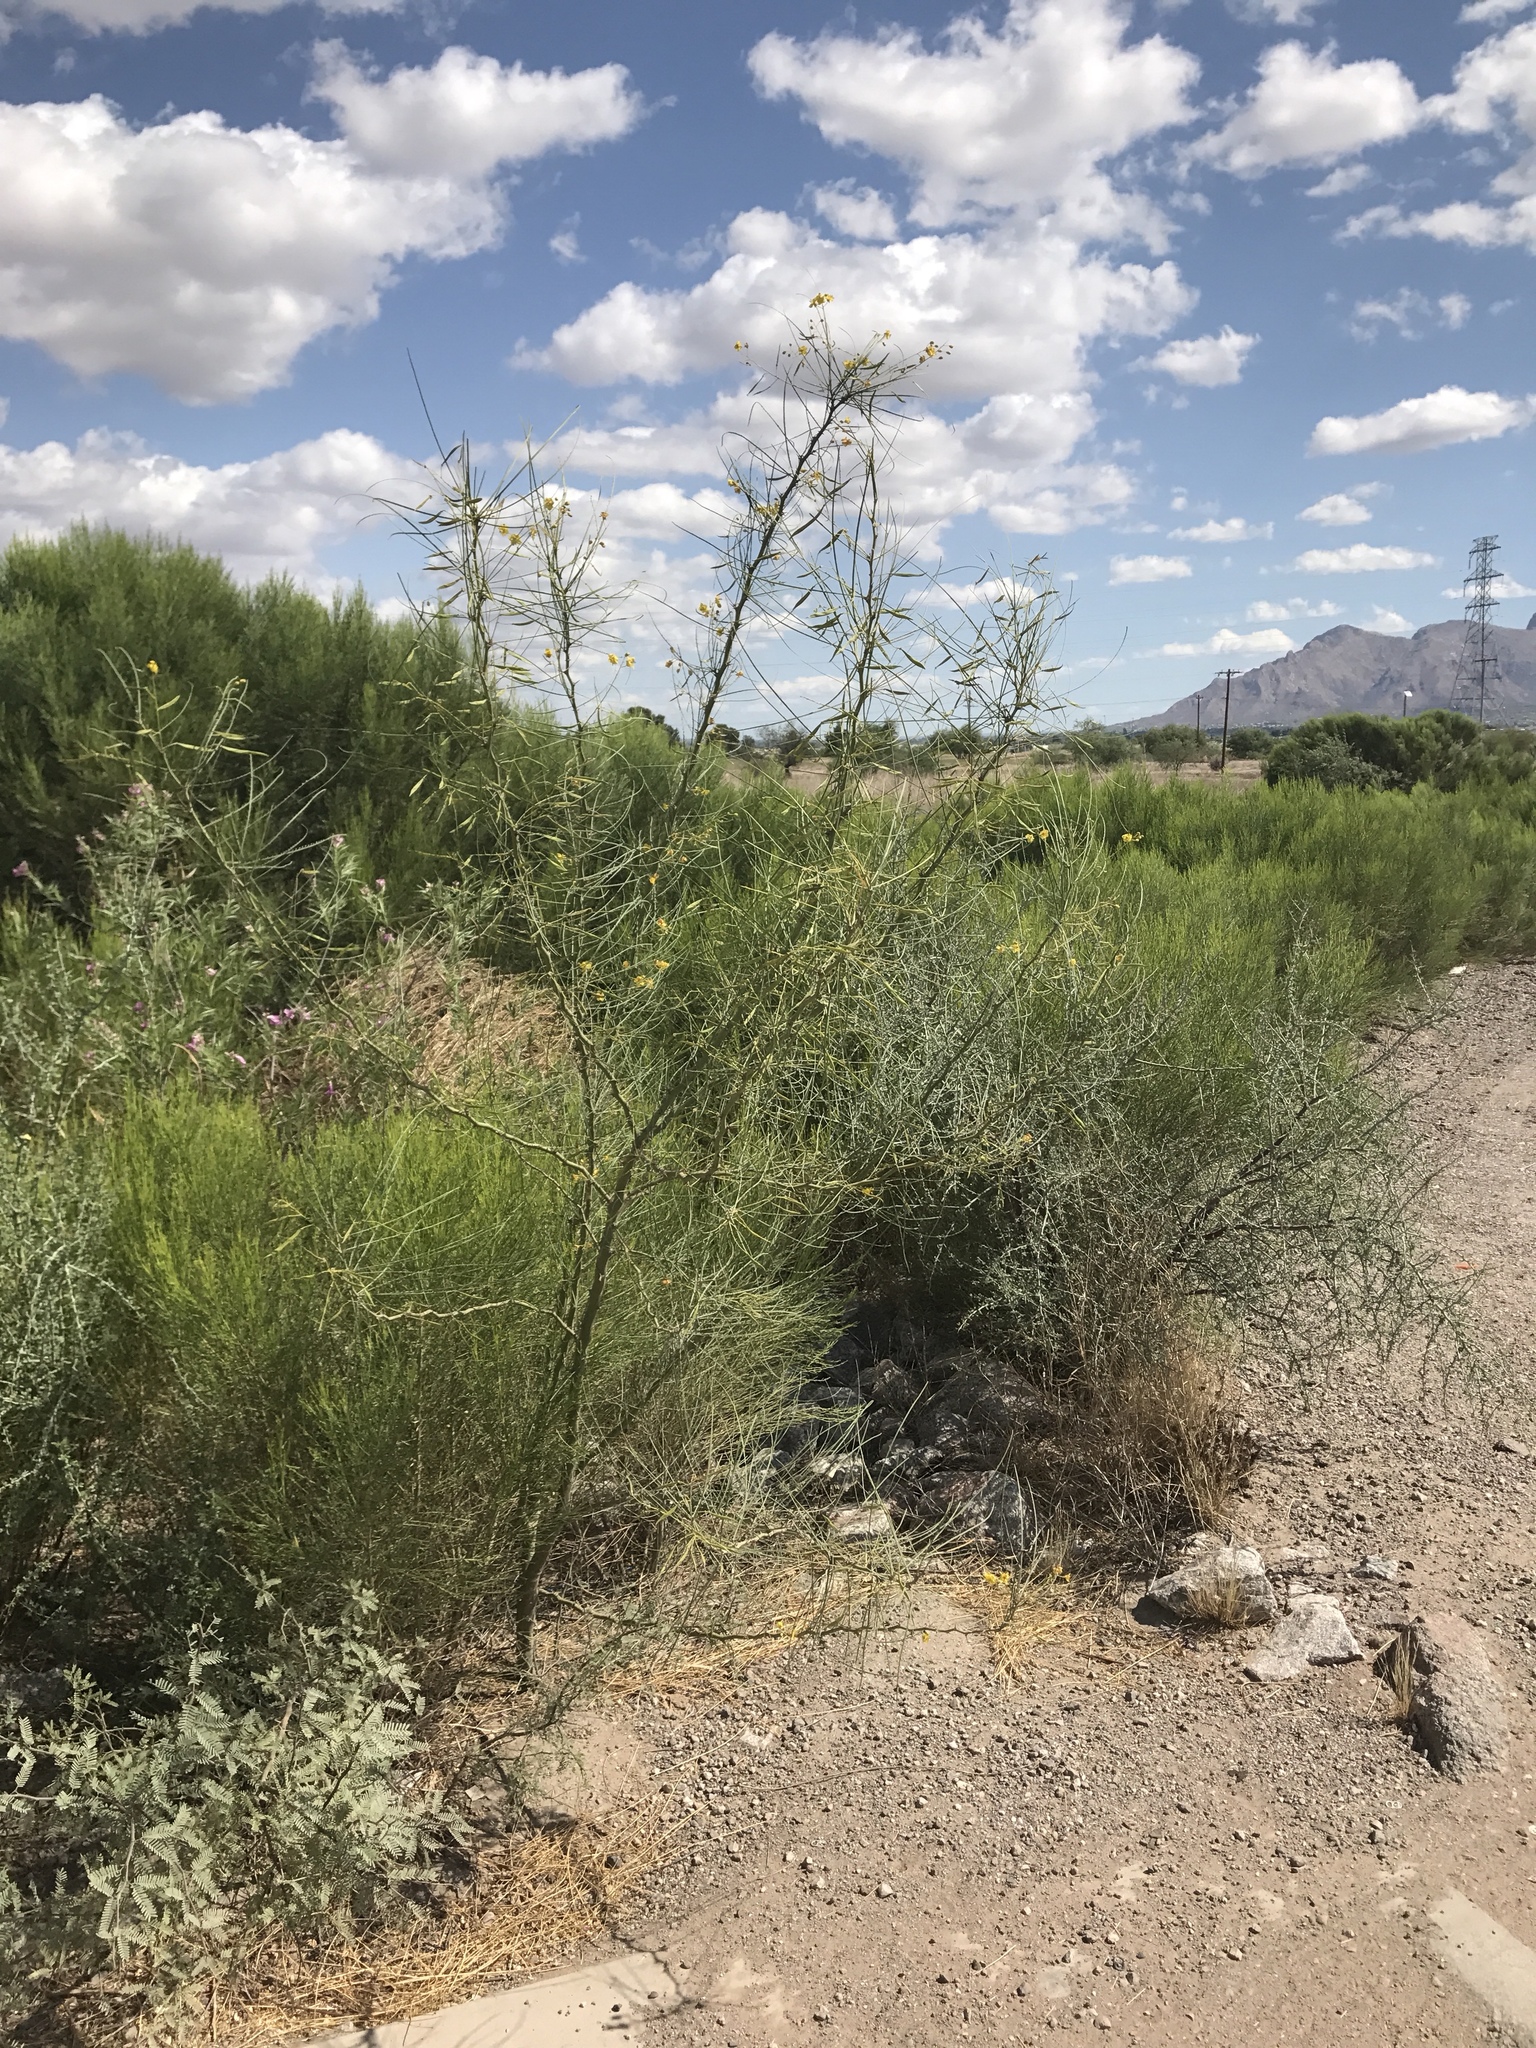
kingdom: Plantae
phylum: Tracheophyta
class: Magnoliopsida
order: Fabales
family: Fabaceae
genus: Parkinsonia
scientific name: Parkinsonia aculeata
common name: Jerusalem thorn
